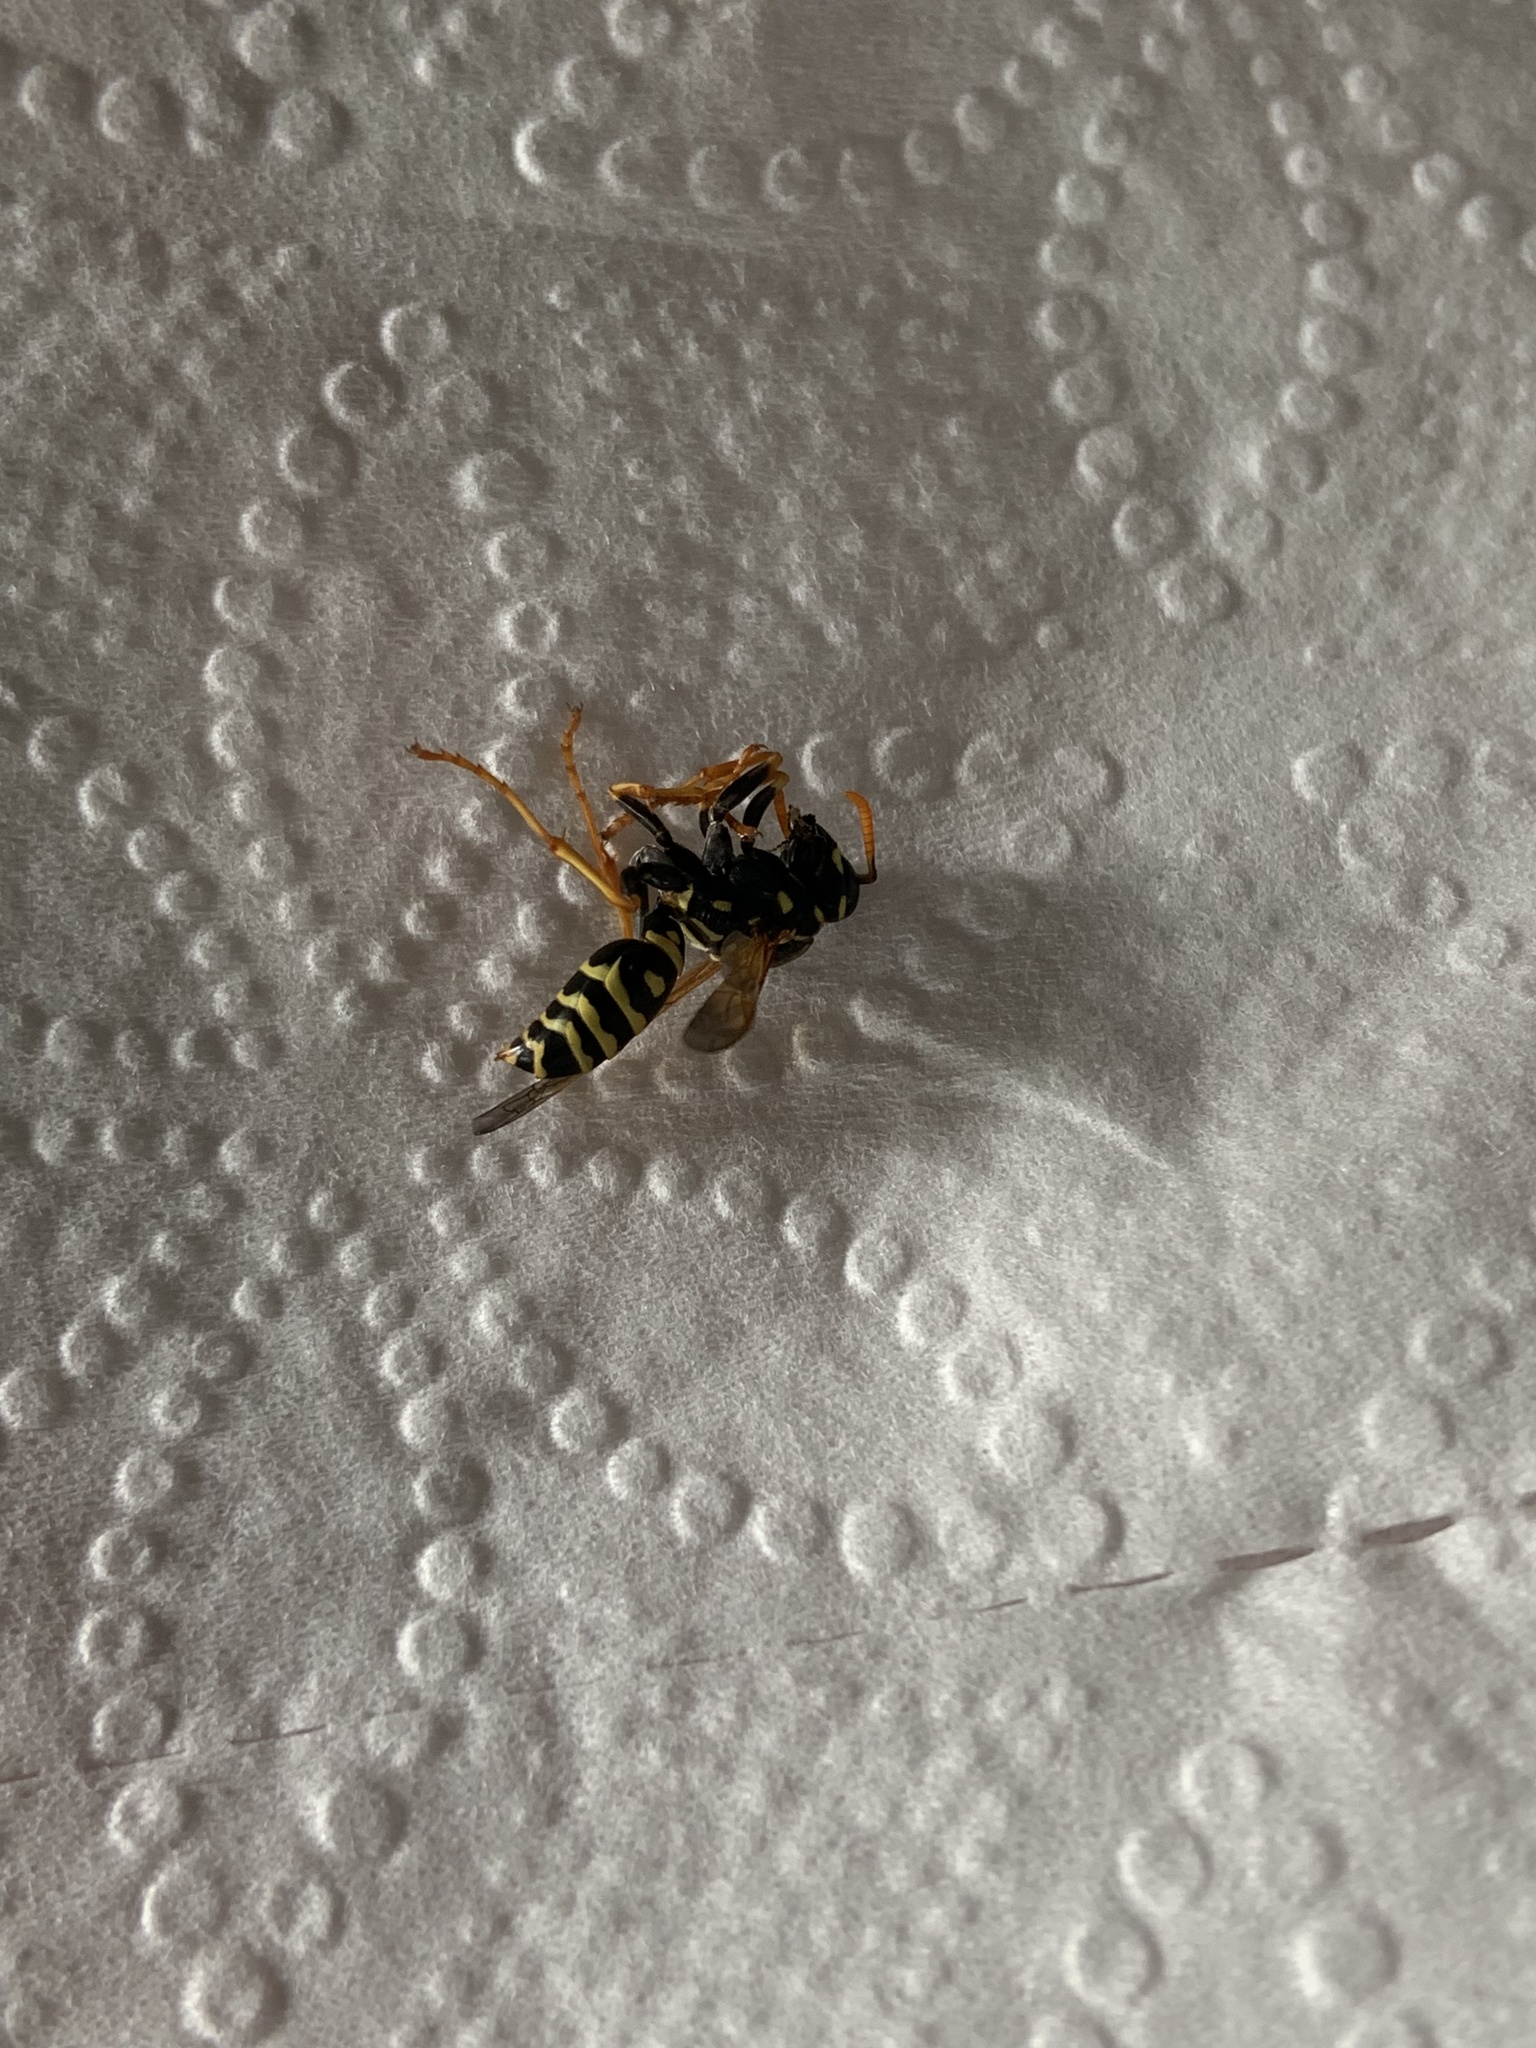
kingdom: Animalia
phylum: Arthropoda
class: Insecta
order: Hymenoptera
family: Eumenidae
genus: Polistes
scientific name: Polistes dominula
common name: Paper wasp
